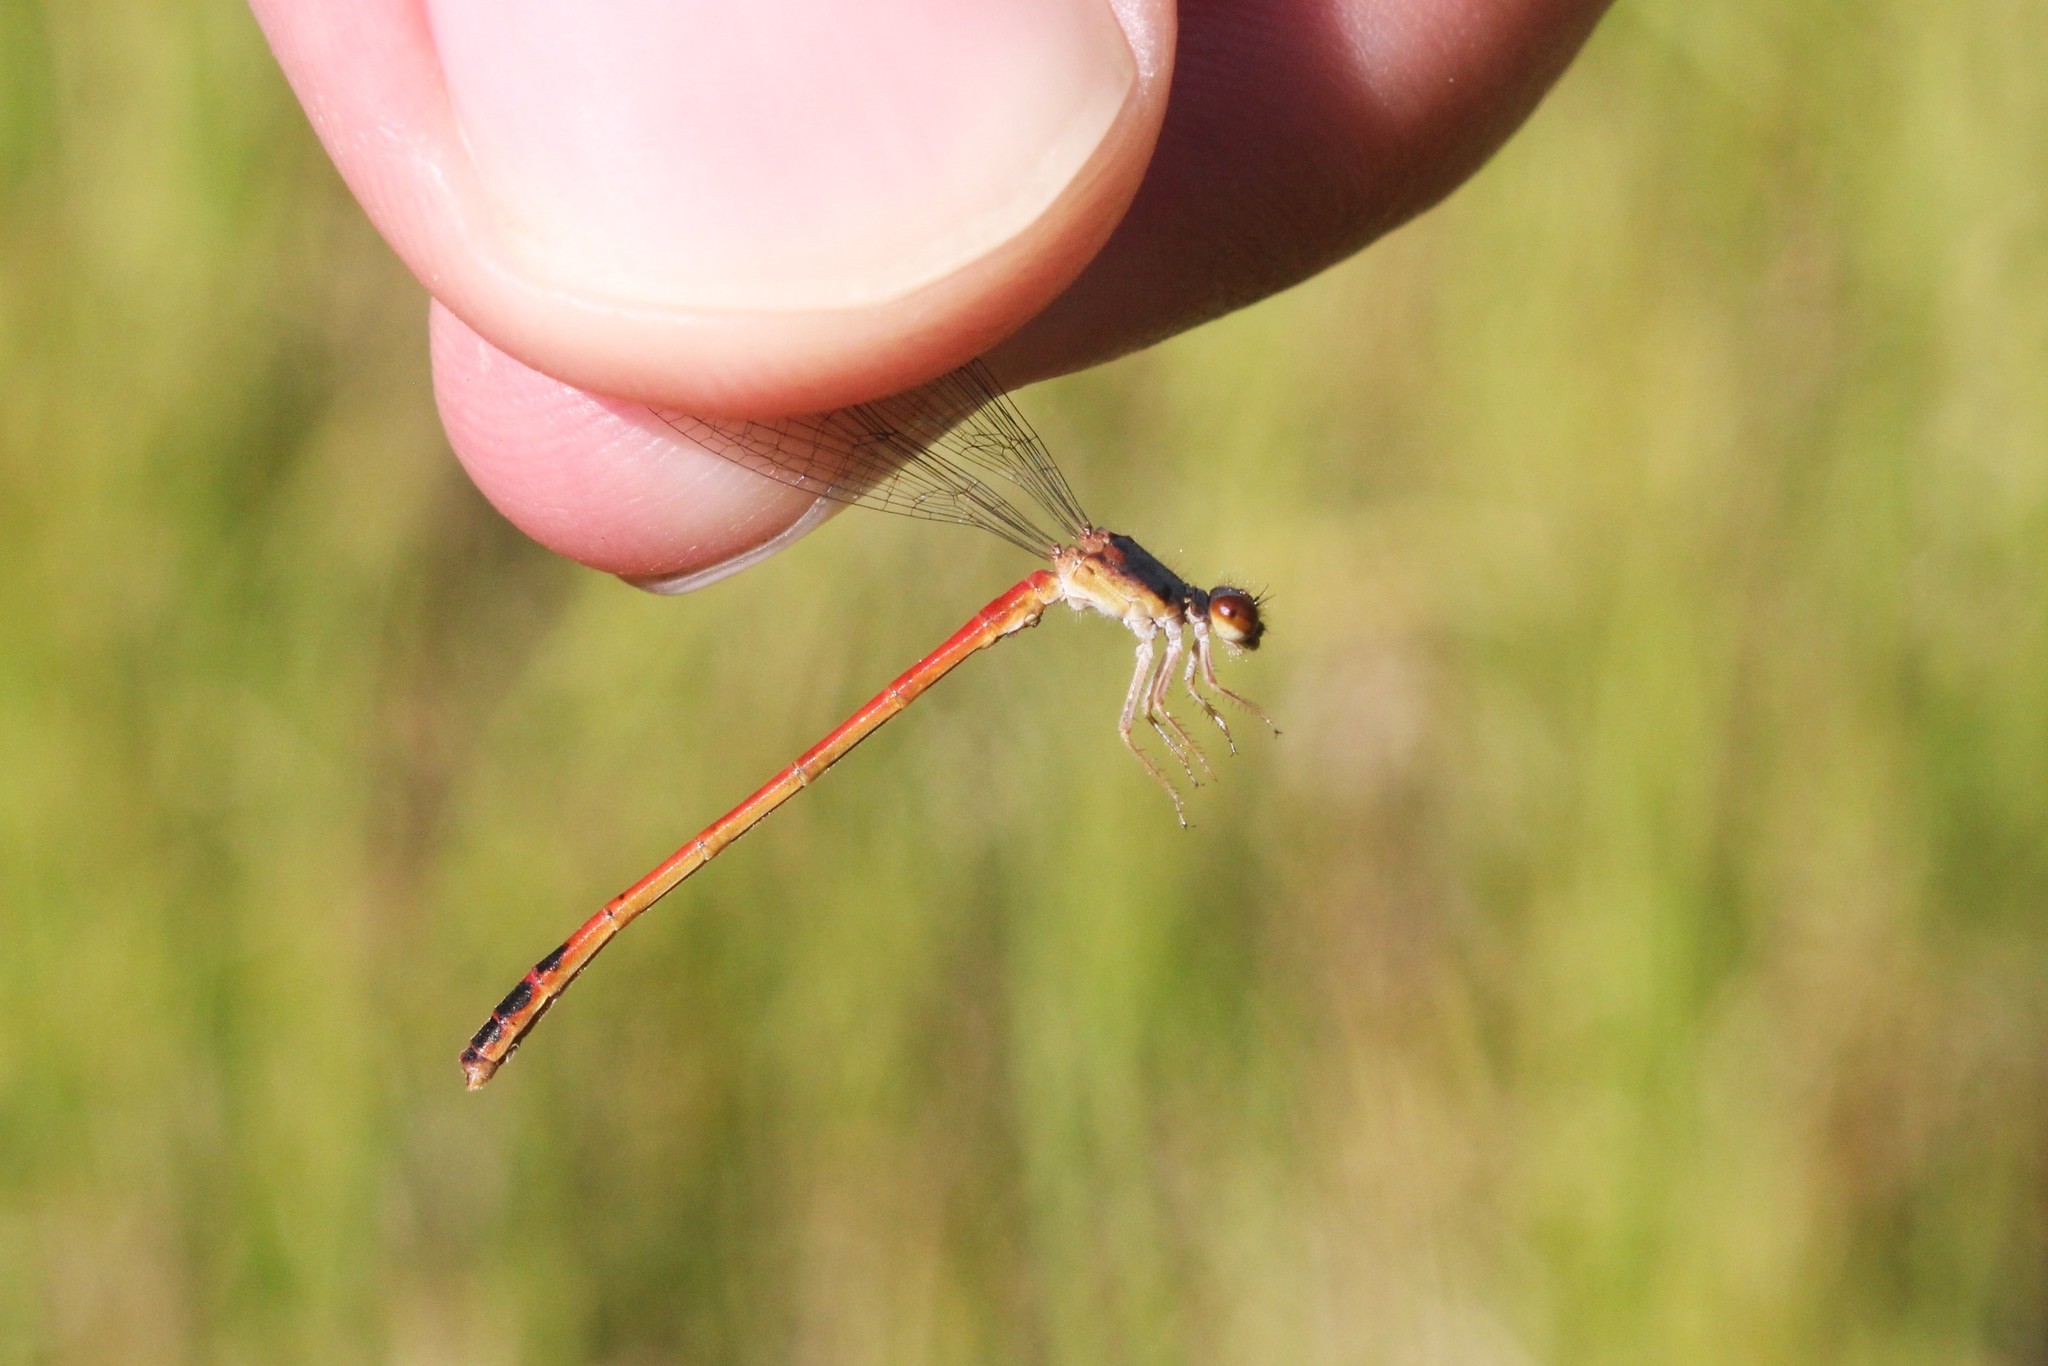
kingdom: Animalia
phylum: Arthropoda
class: Insecta
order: Odonata
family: Coenagrionidae
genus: Amphiagrion
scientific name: Amphiagrion saucium
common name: Eastern red damsel
